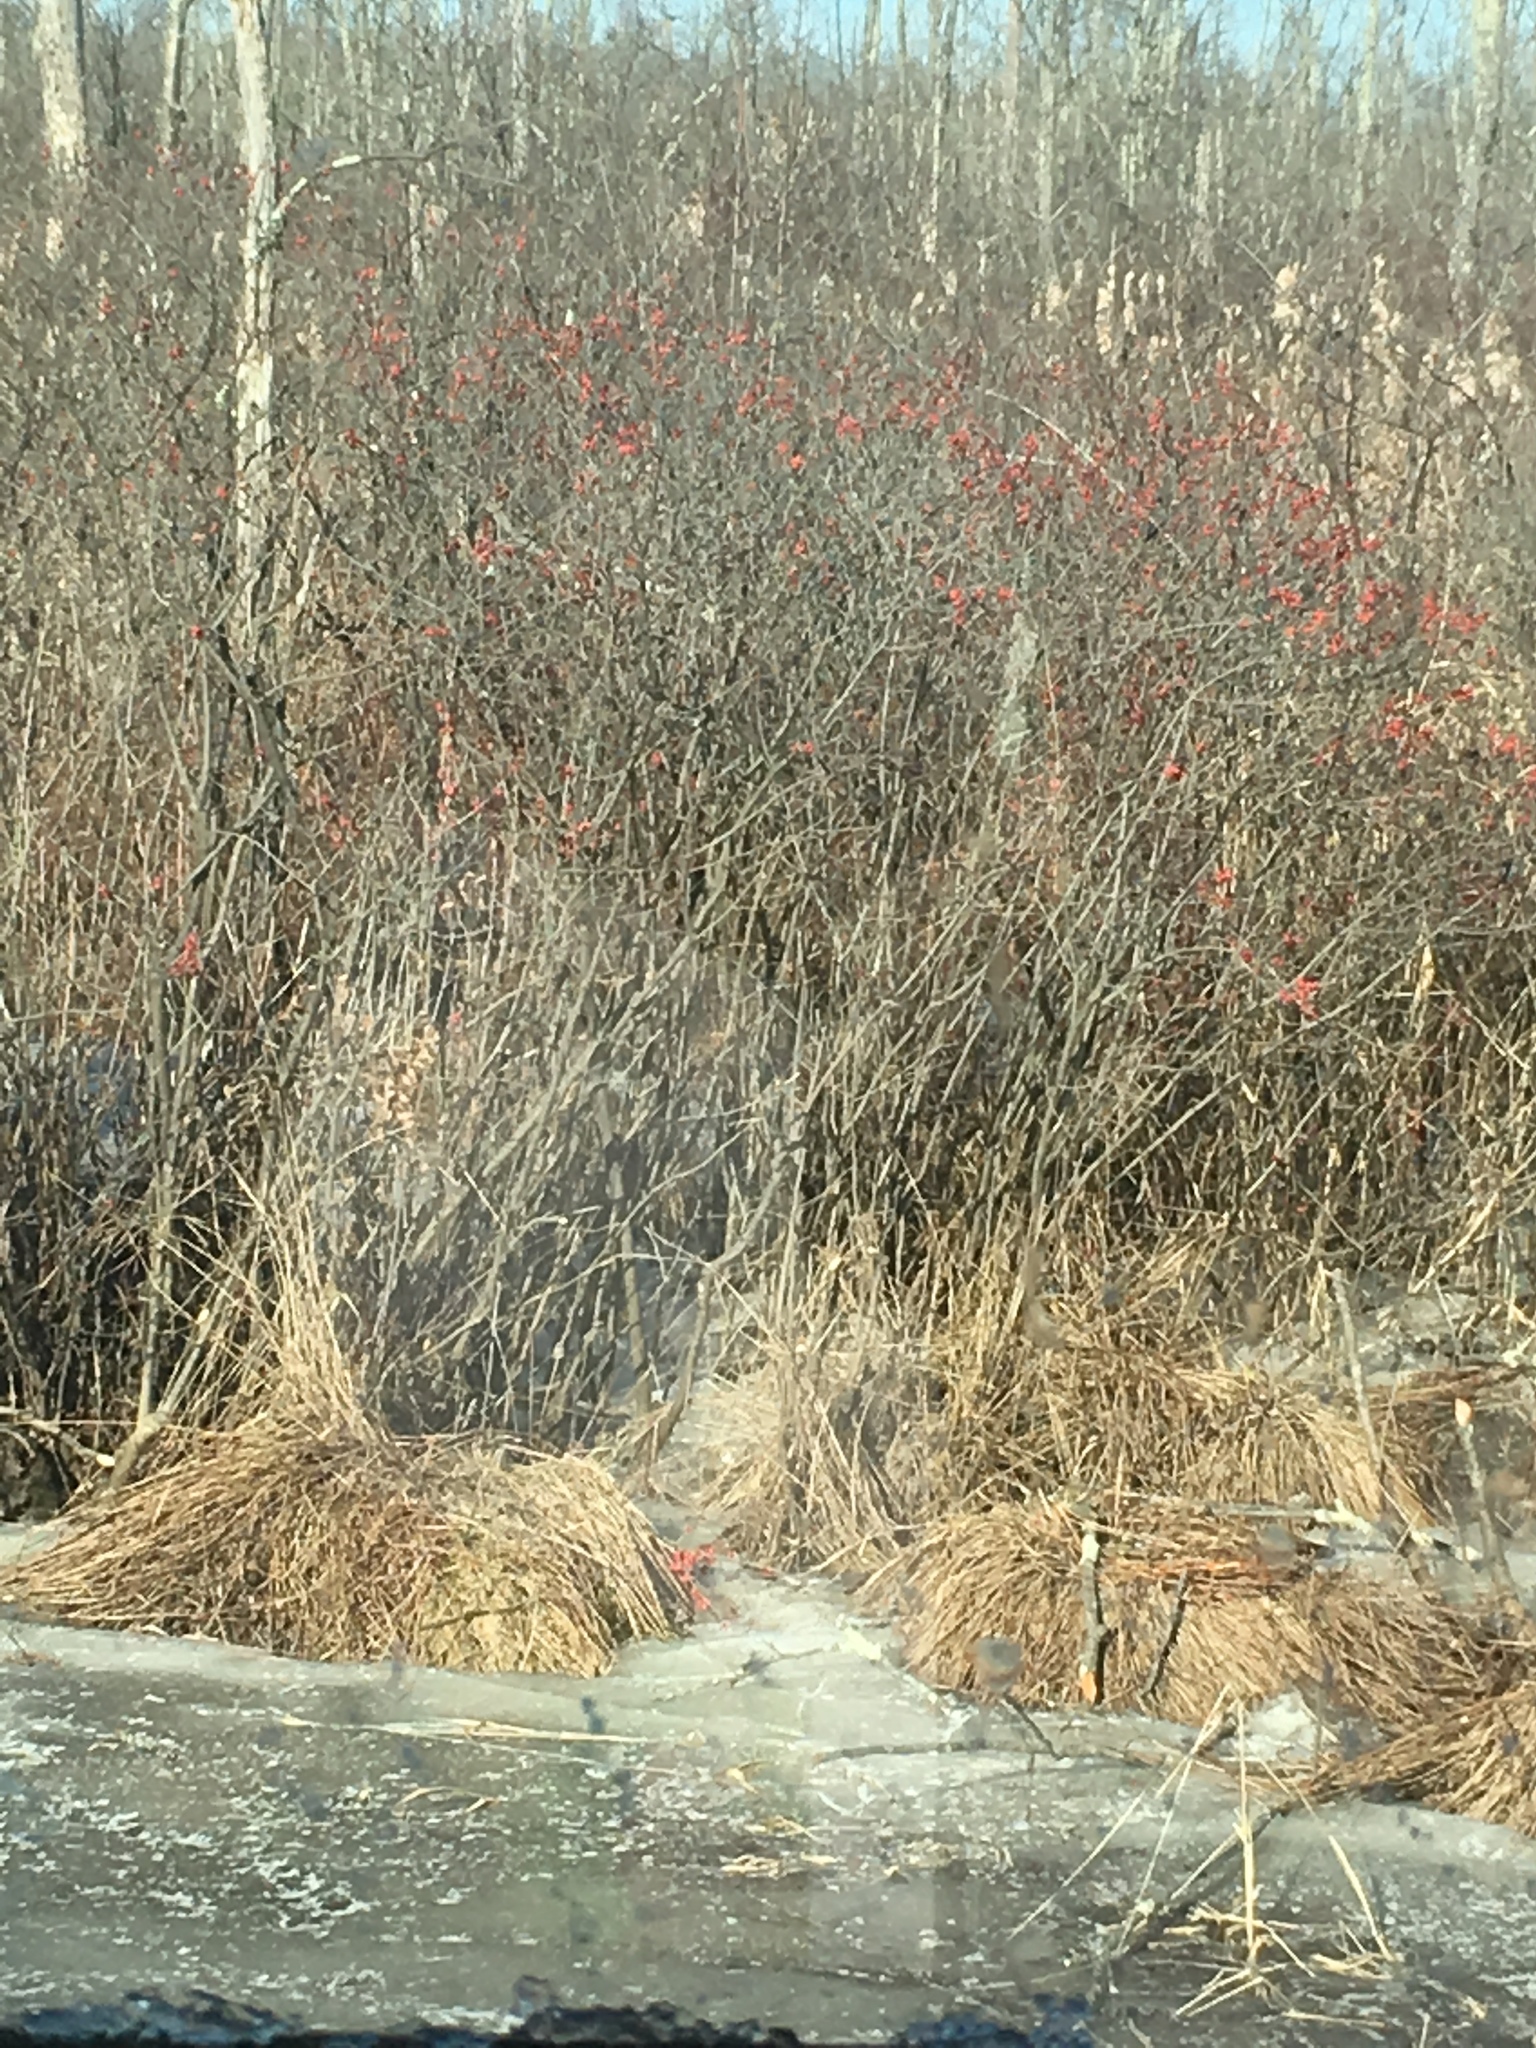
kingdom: Plantae
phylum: Tracheophyta
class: Magnoliopsida
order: Aquifoliales
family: Aquifoliaceae
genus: Ilex
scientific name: Ilex verticillata
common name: Virginia winterberry
